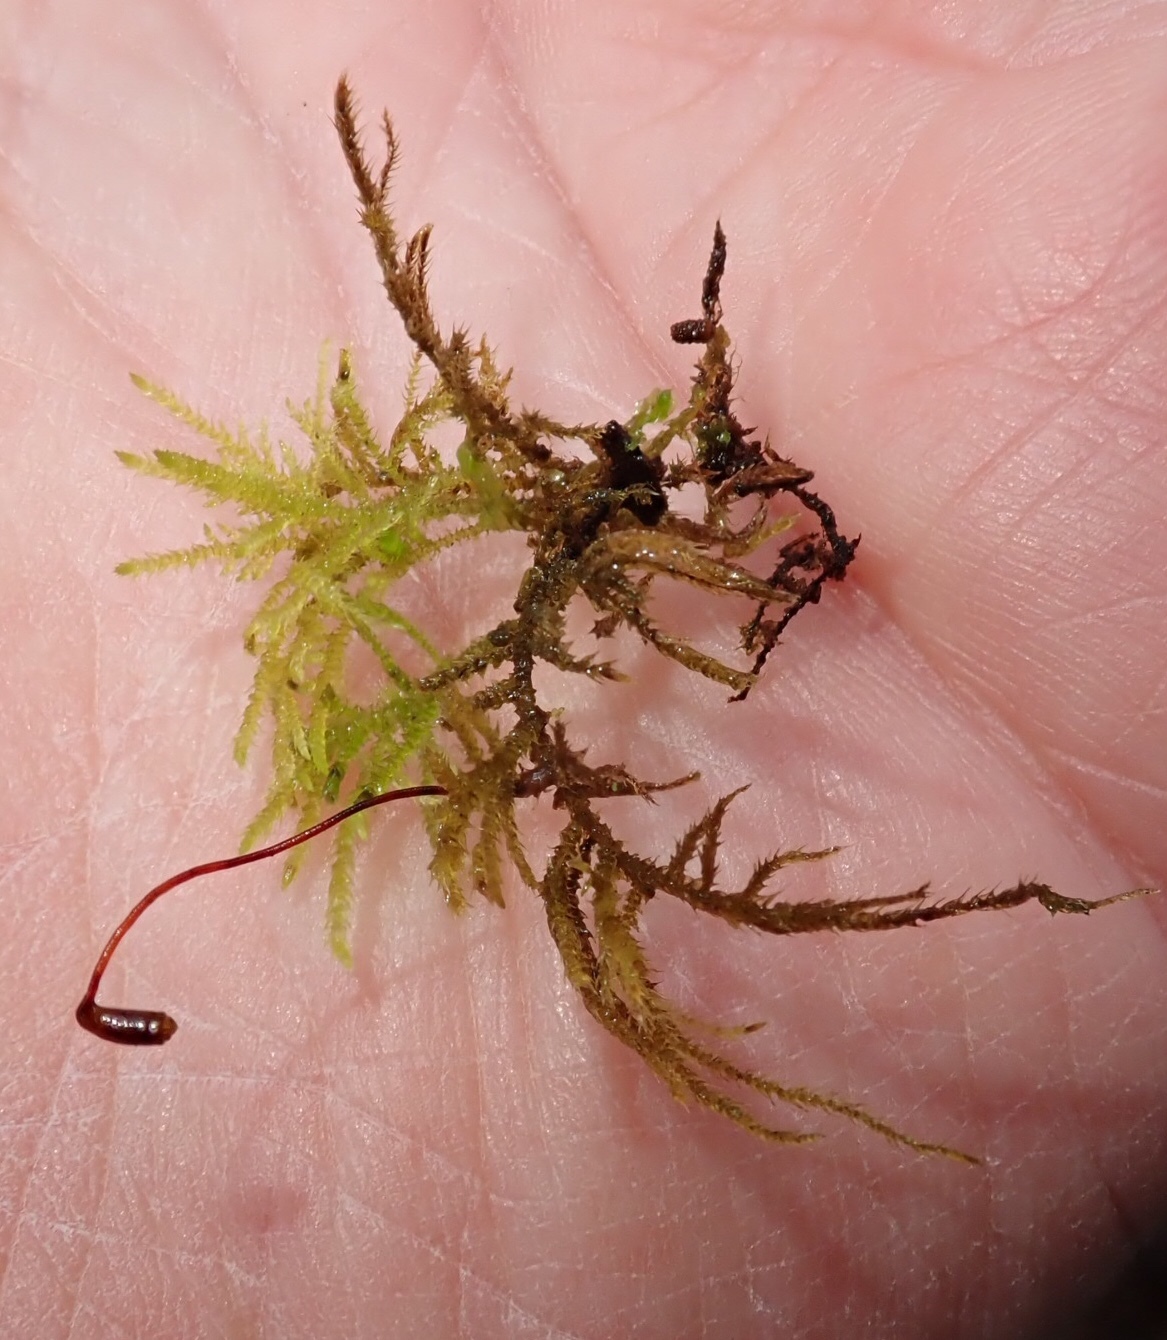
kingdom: Plantae
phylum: Bryophyta
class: Bryopsida
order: Hypnales
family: Brachytheciaceae
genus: Kindbergia
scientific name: Kindbergia oregana
